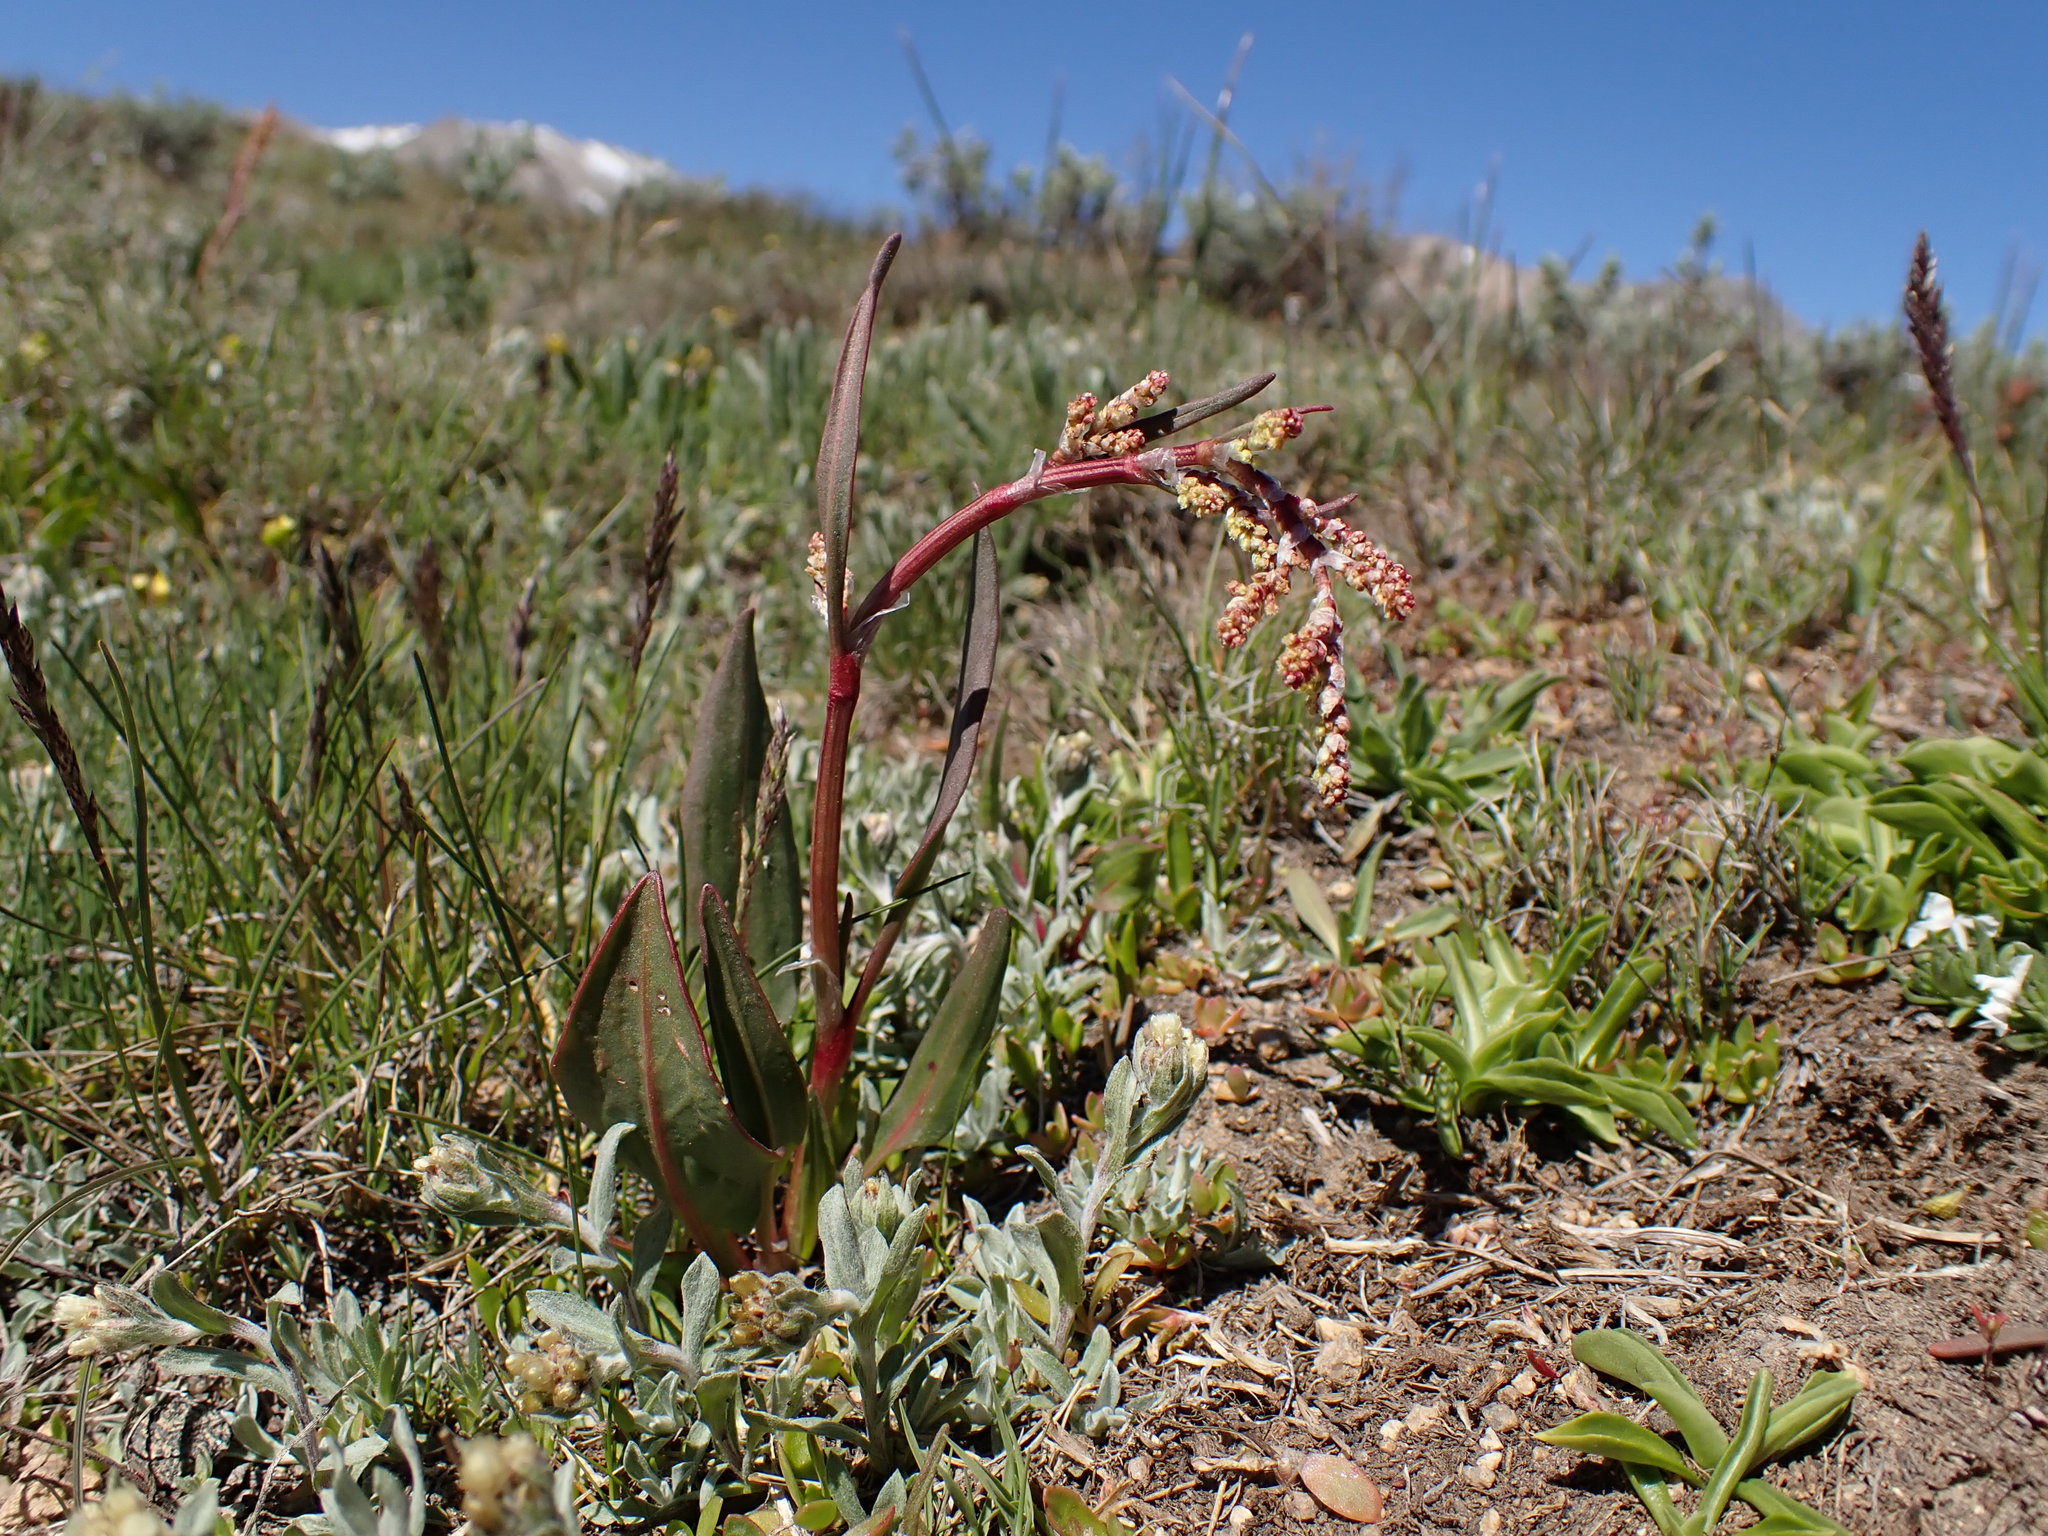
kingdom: Plantae
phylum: Tracheophyta
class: Magnoliopsida
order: Caryophyllales
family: Polygonaceae
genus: Rumex
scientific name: Rumex paucifolius
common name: Alpine sheep sorrel
